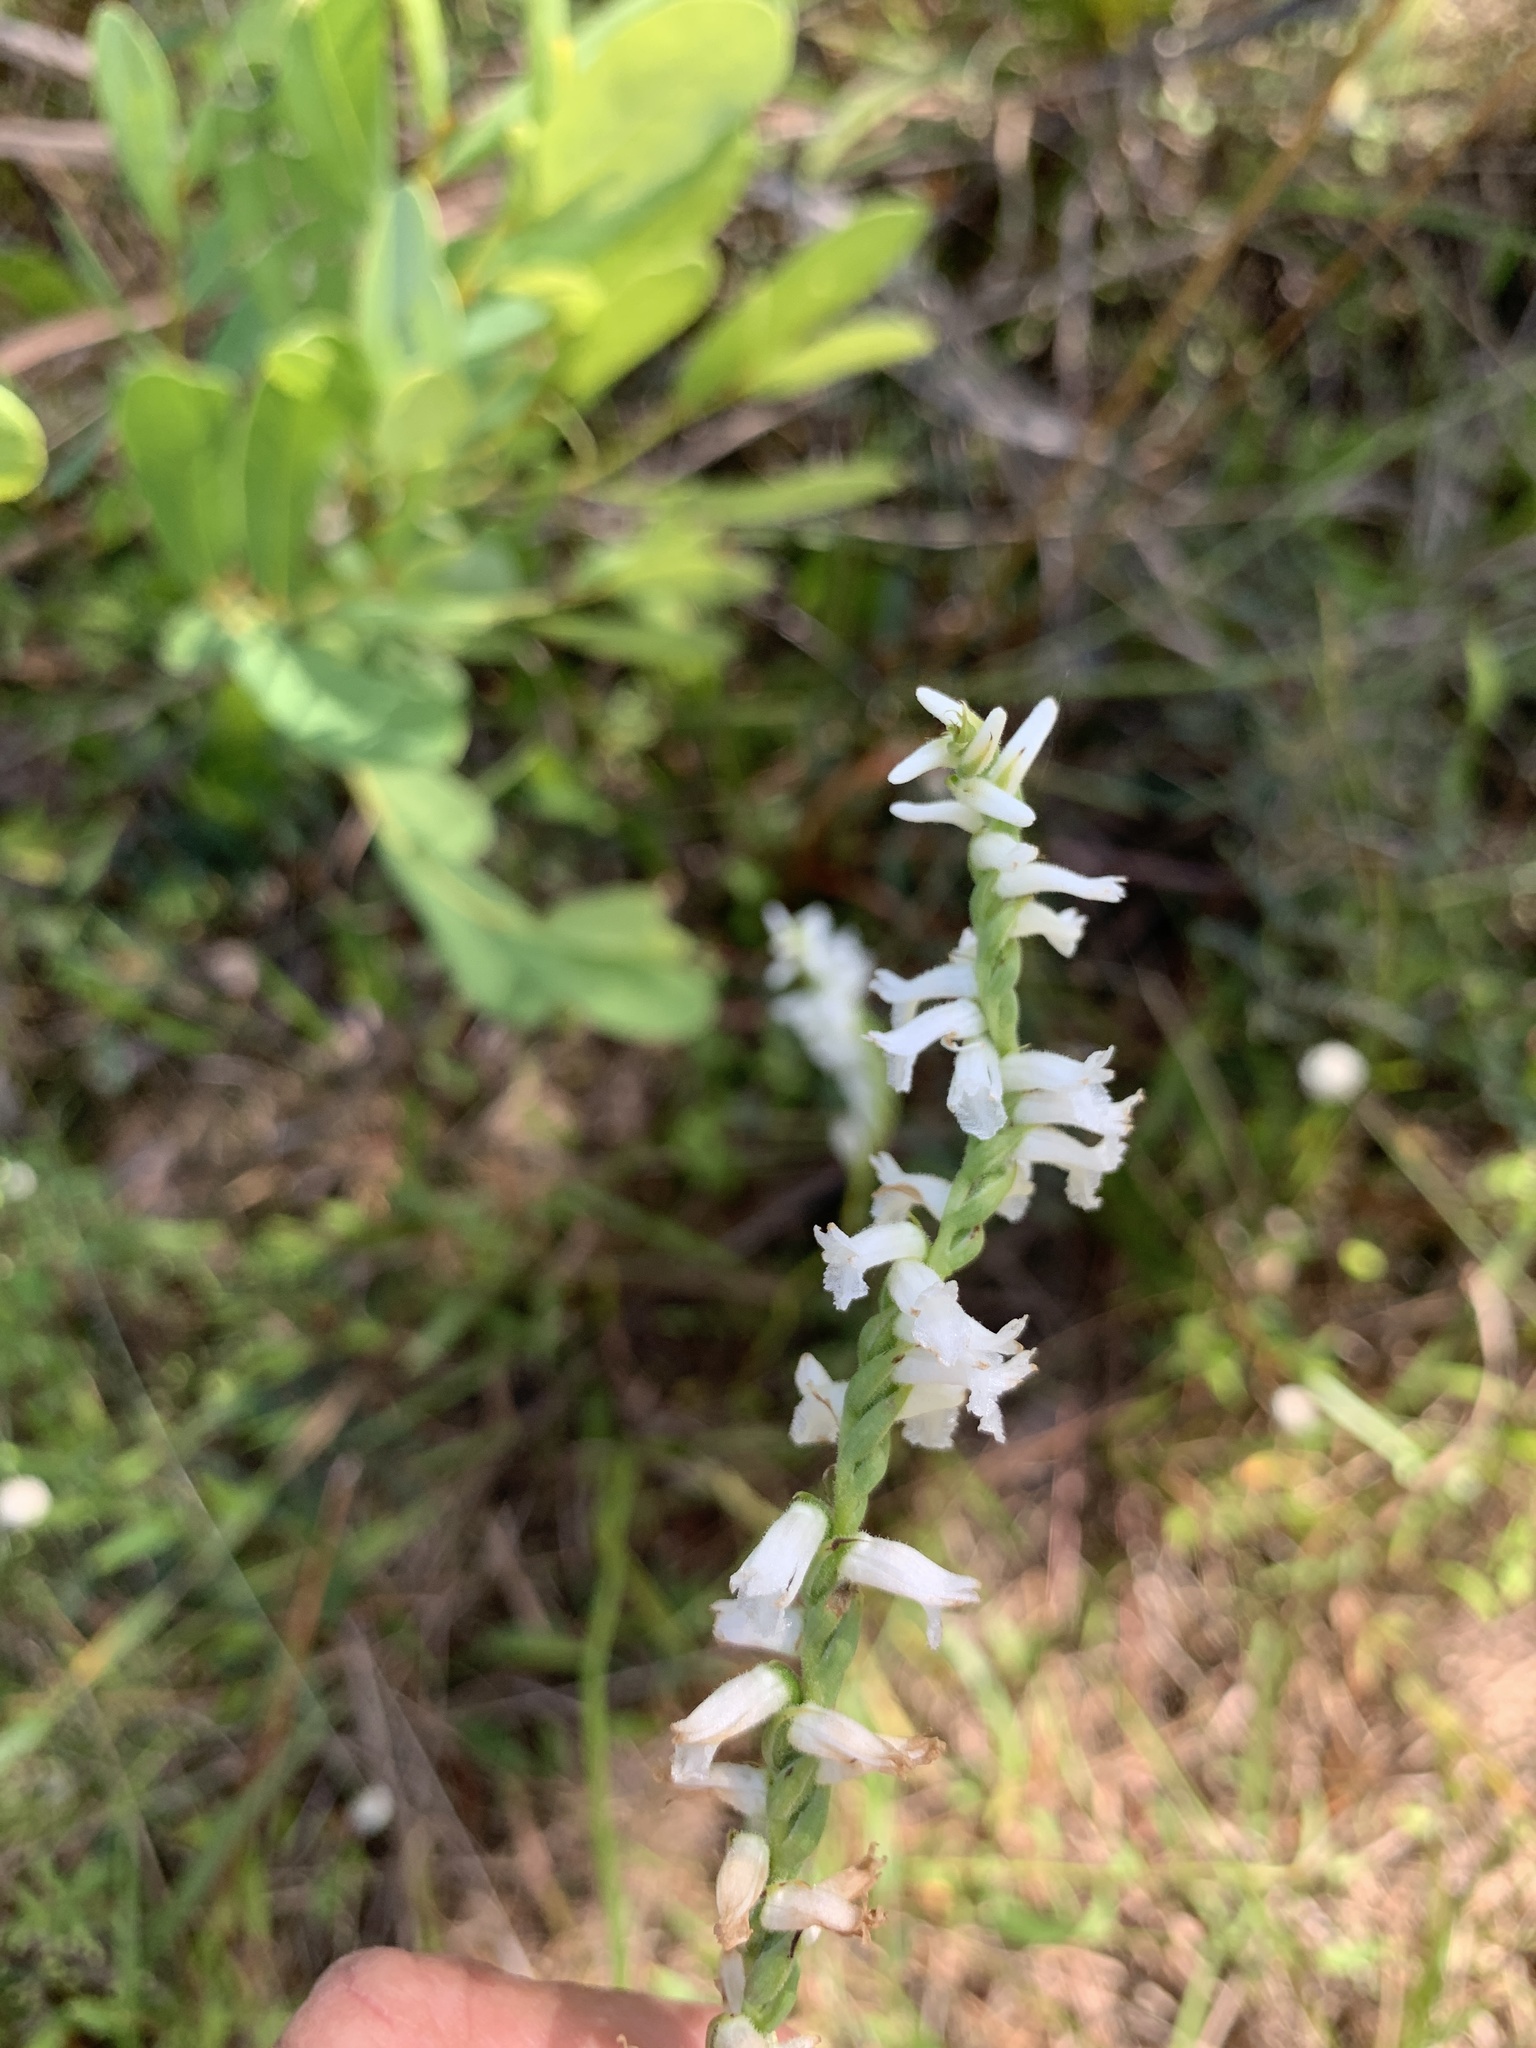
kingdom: Plantae
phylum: Tracheophyta
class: Liliopsida
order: Asparagales
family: Orchidaceae
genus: Spiranthes
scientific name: Spiranthes praecox
